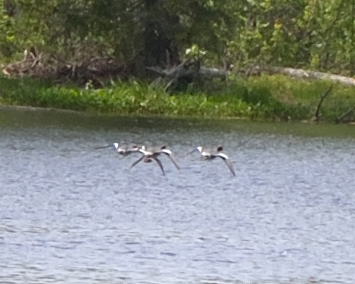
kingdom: Animalia
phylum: Chordata
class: Aves
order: Anseriformes
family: Anatidae
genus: Mareca
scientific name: Mareca penelope
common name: Eurasian wigeon
